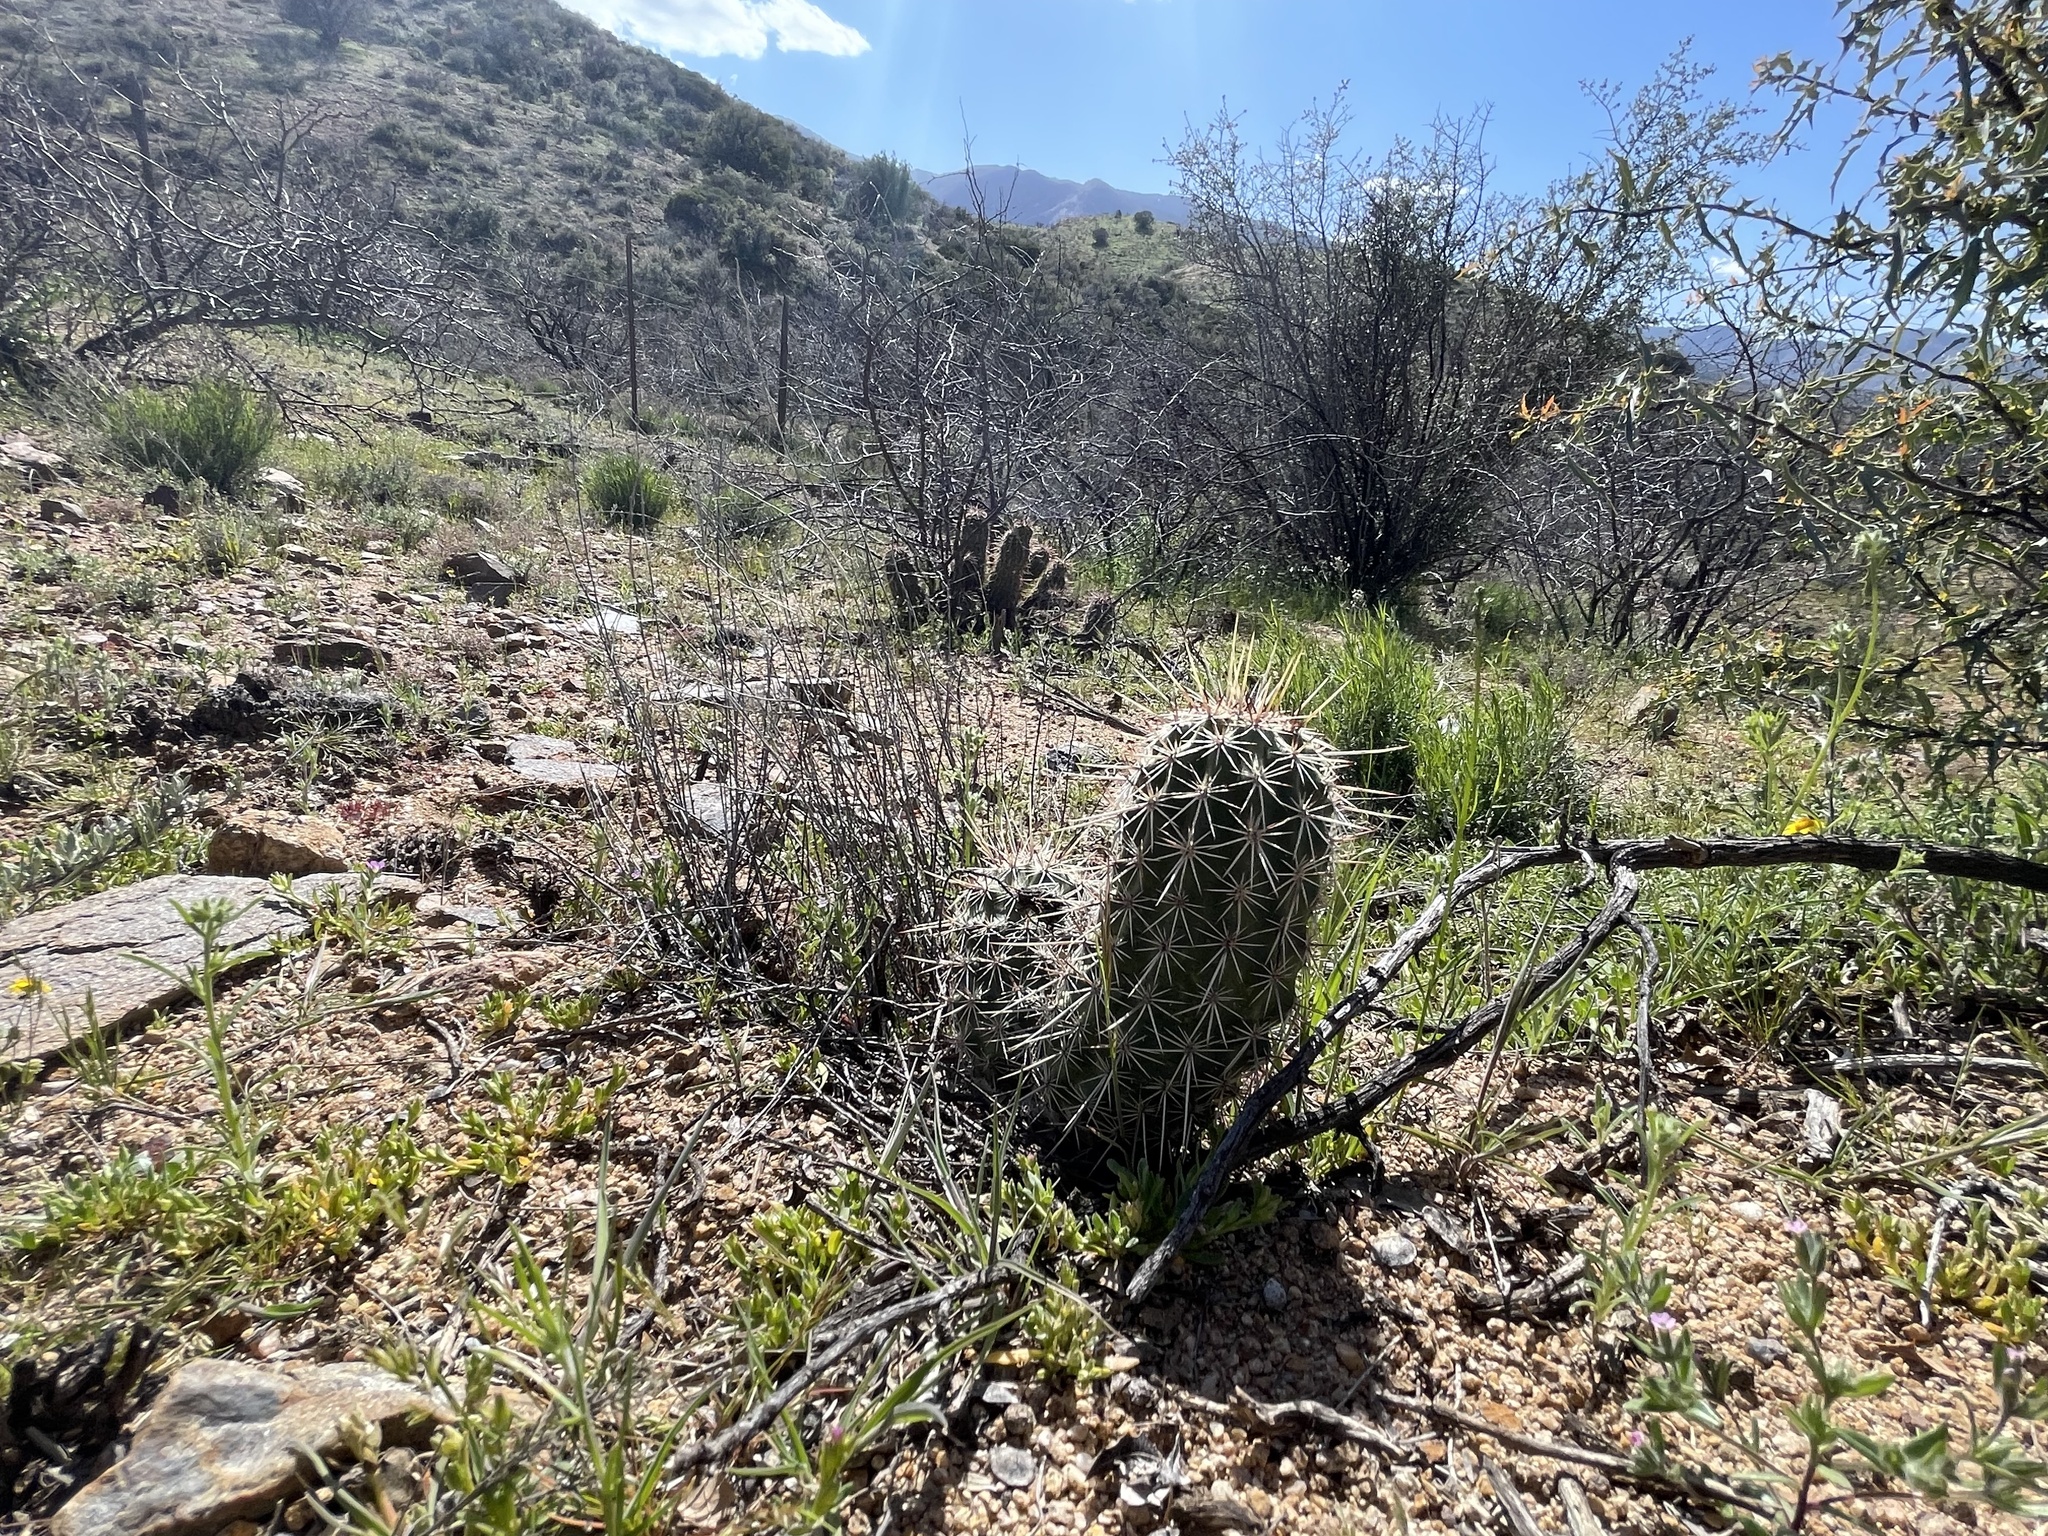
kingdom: Plantae
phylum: Tracheophyta
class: Magnoliopsida
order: Caryophyllales
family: Cactaceae
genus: Echinocereus
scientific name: Echinocereus fasciculatus
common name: Bundle hedgehog
